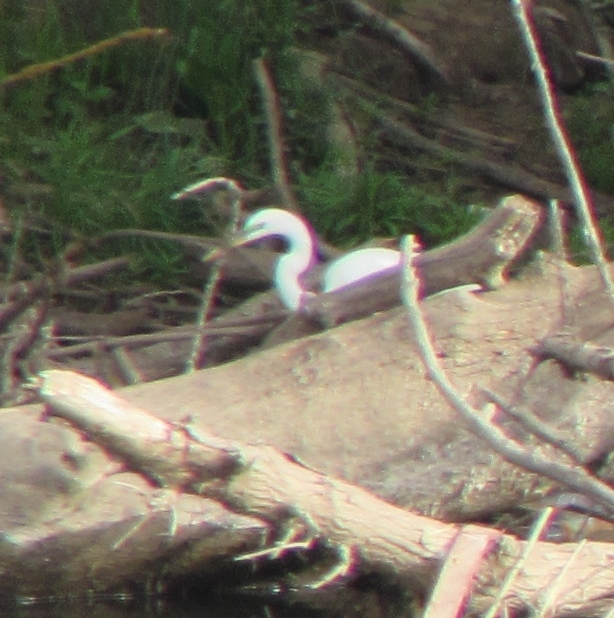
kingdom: Animalia
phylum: Chordata
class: Aves
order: Pelecaniformes
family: Ardeidae
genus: Ardea
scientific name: Ardea alba
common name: Great egret
